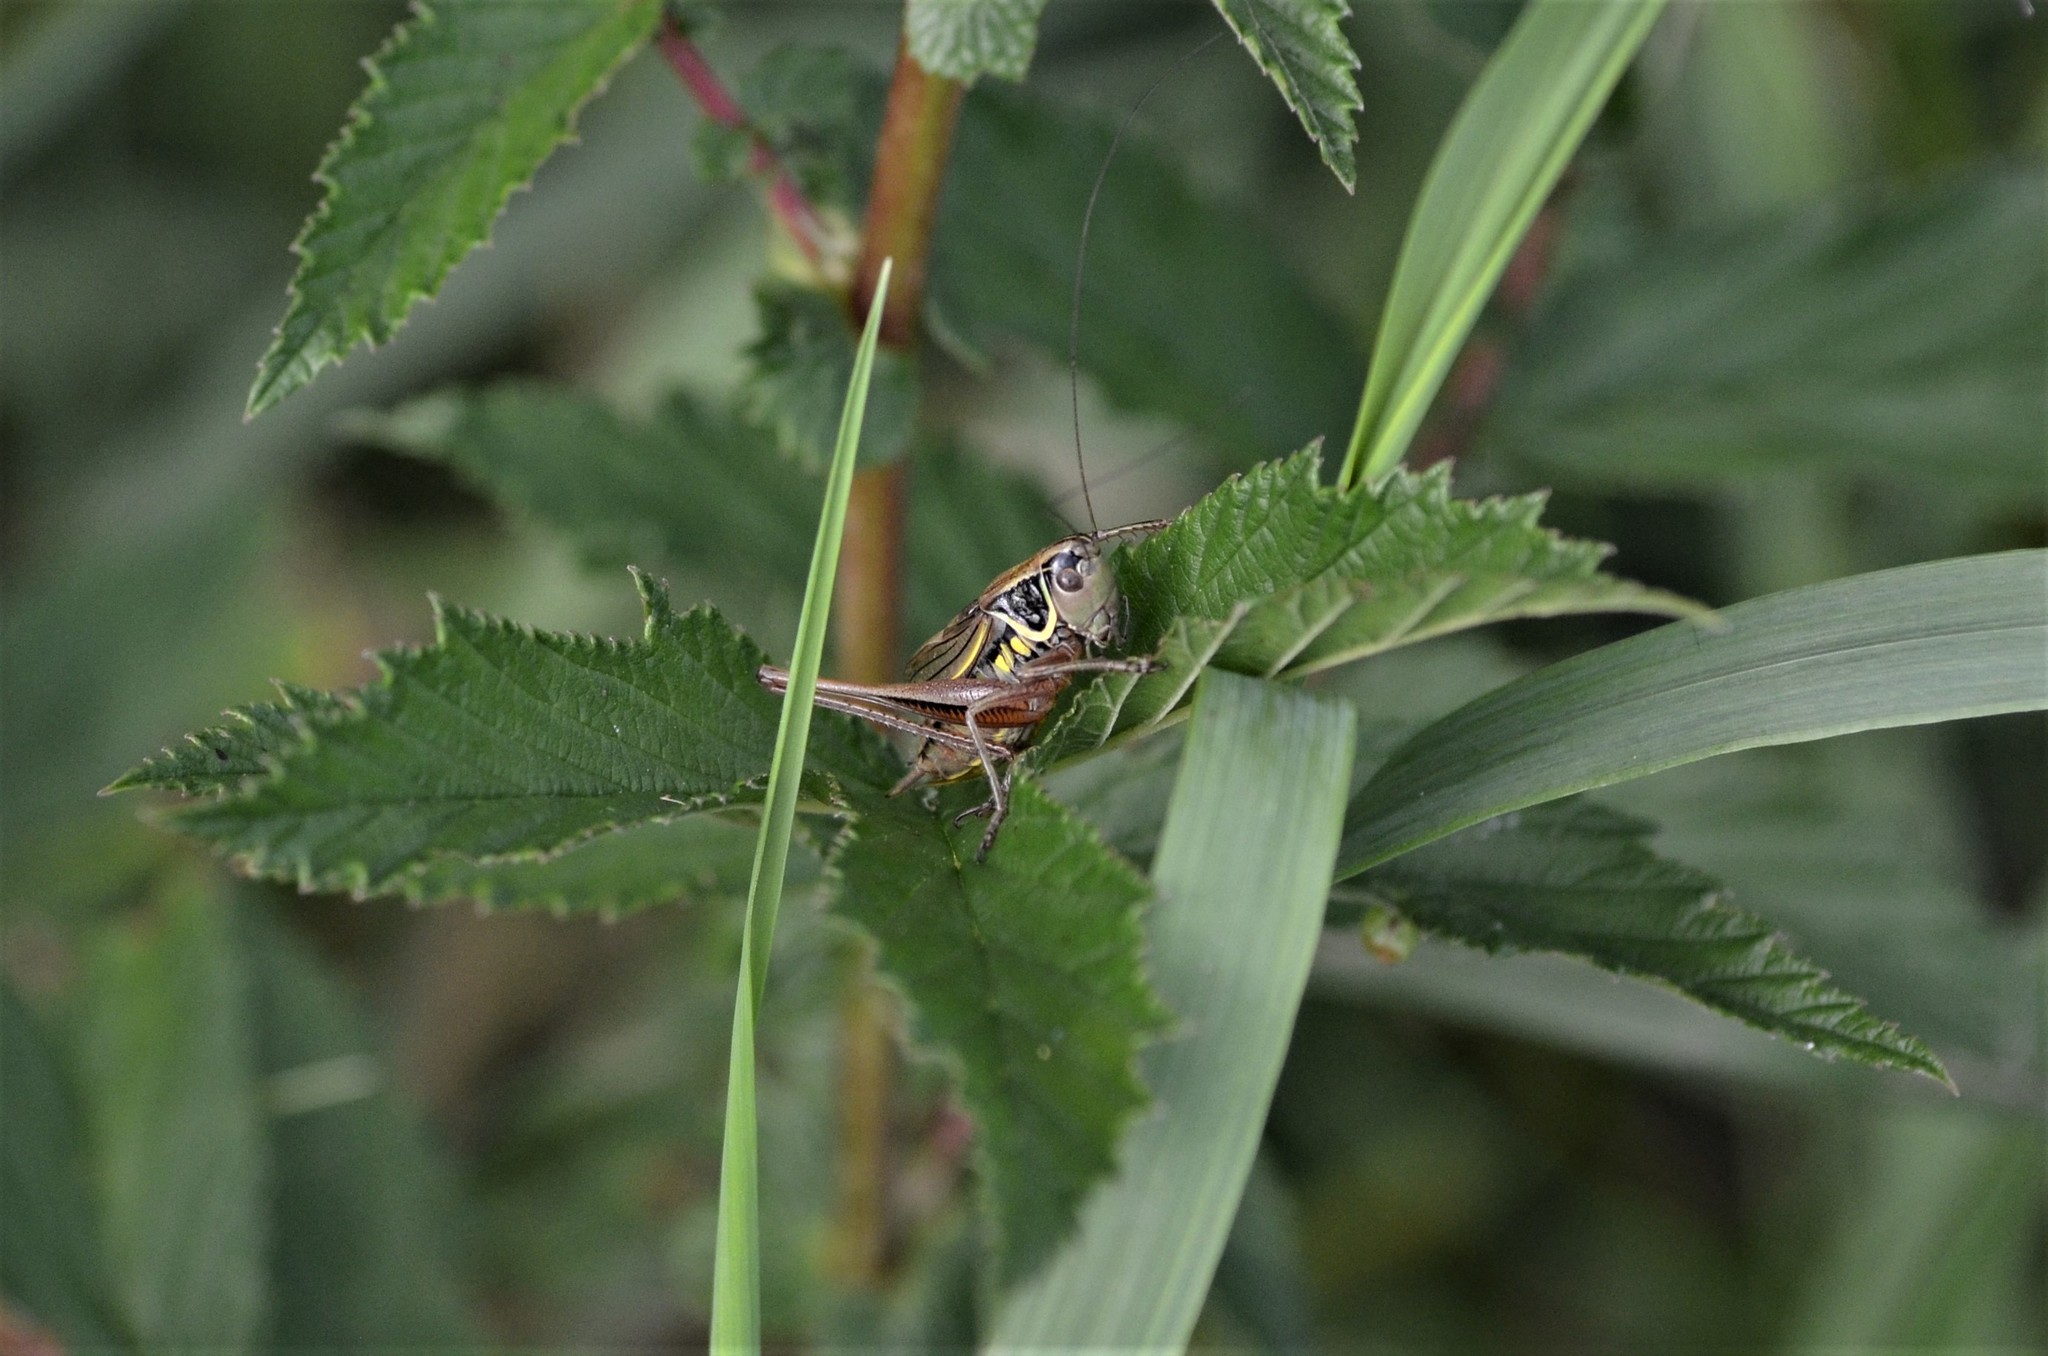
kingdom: Animalia
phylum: Arthropoda
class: Insecta
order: Orthoptera
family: Tettigoniidae
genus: Roeseliana
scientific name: Roeseliana roeselii
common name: Roesel's bush cricket
